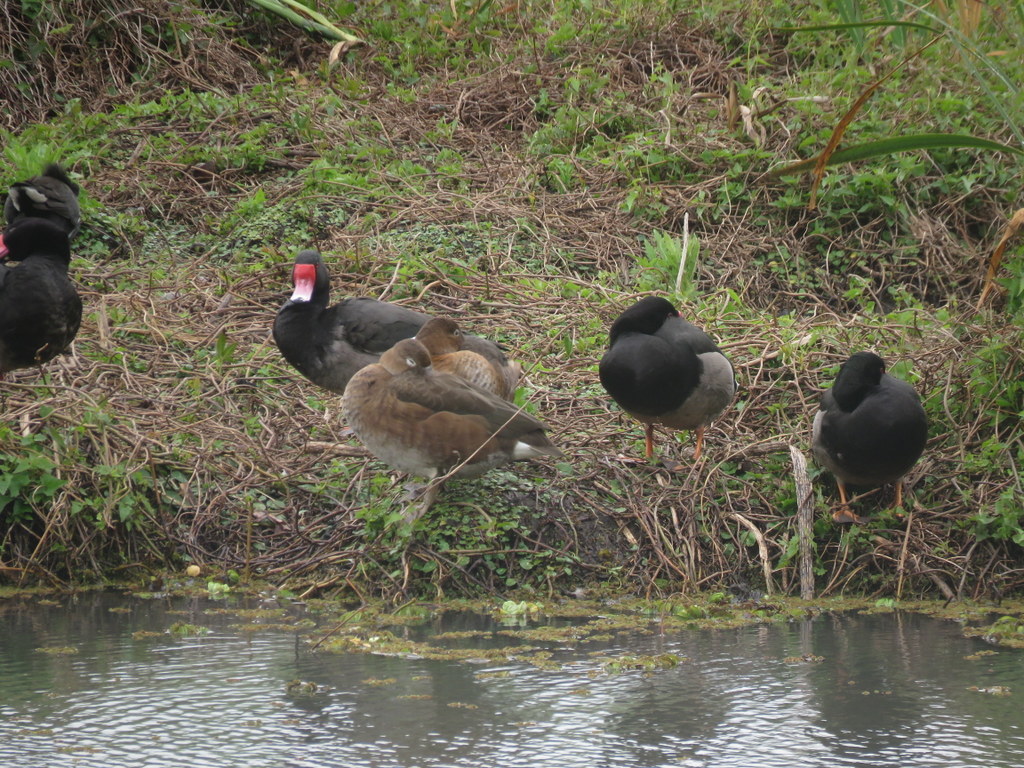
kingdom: Animalia
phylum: Chordata
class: Aves
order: Anseriformes
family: Anatidae
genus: Netta
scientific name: Netta peposaca
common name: Rosy-billed pochard
